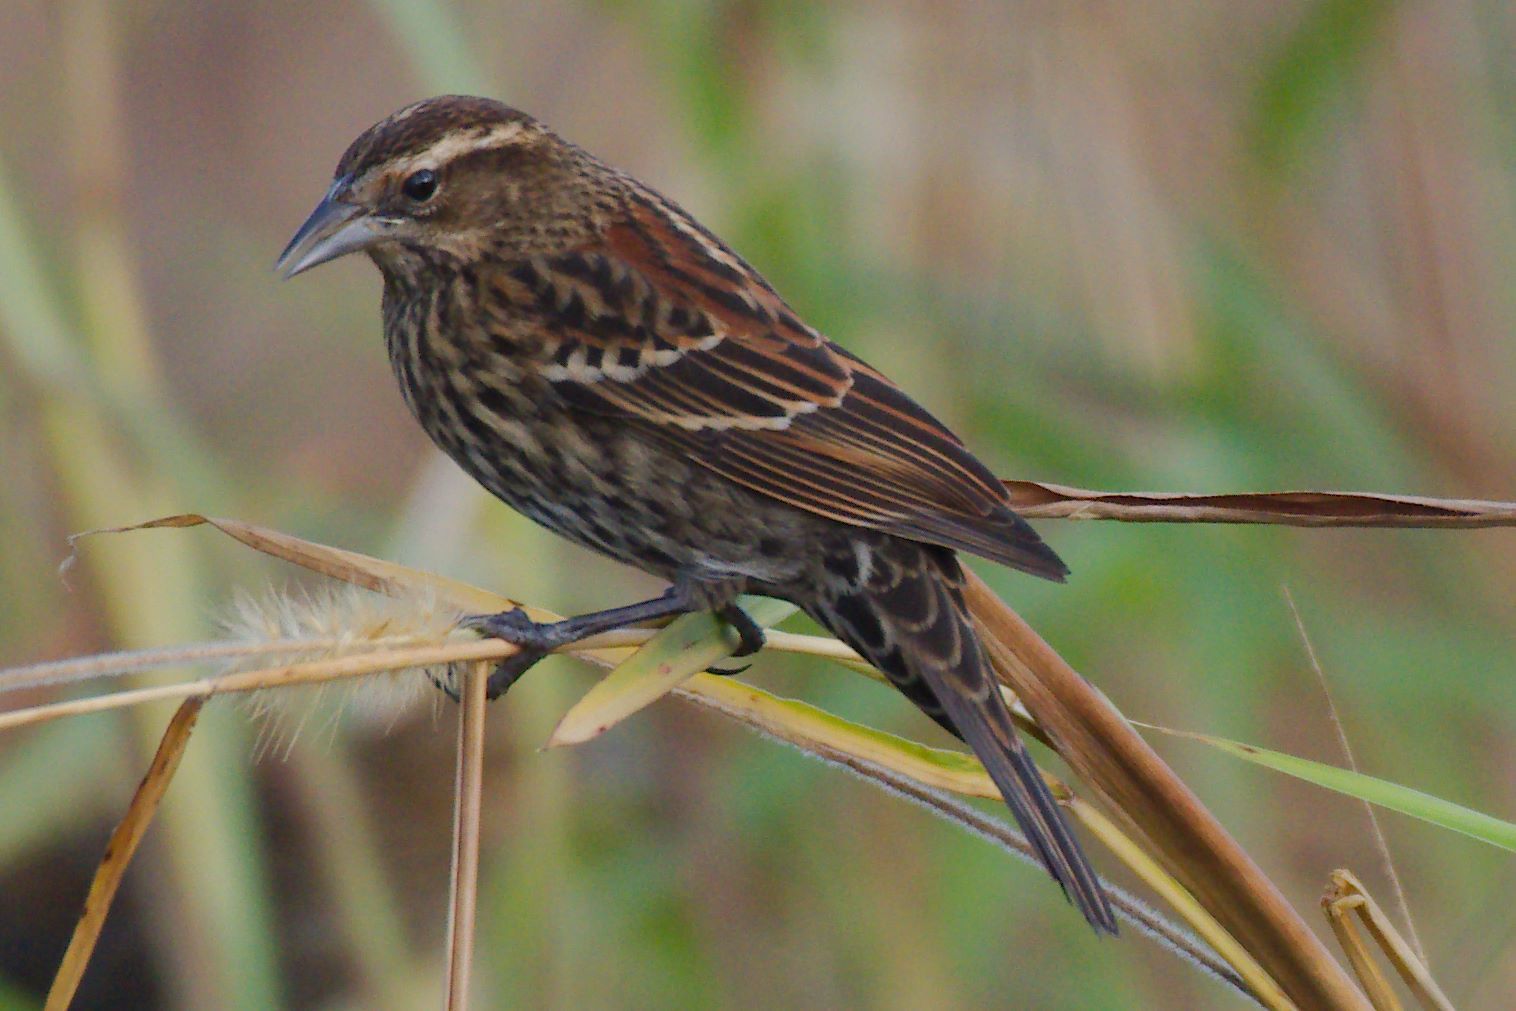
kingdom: Animalia
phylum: Chordata
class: Aves
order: Passeriformes
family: Icteridae
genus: Agelaius
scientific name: Agelaius phoeniceus
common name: Red-winged blackbird
